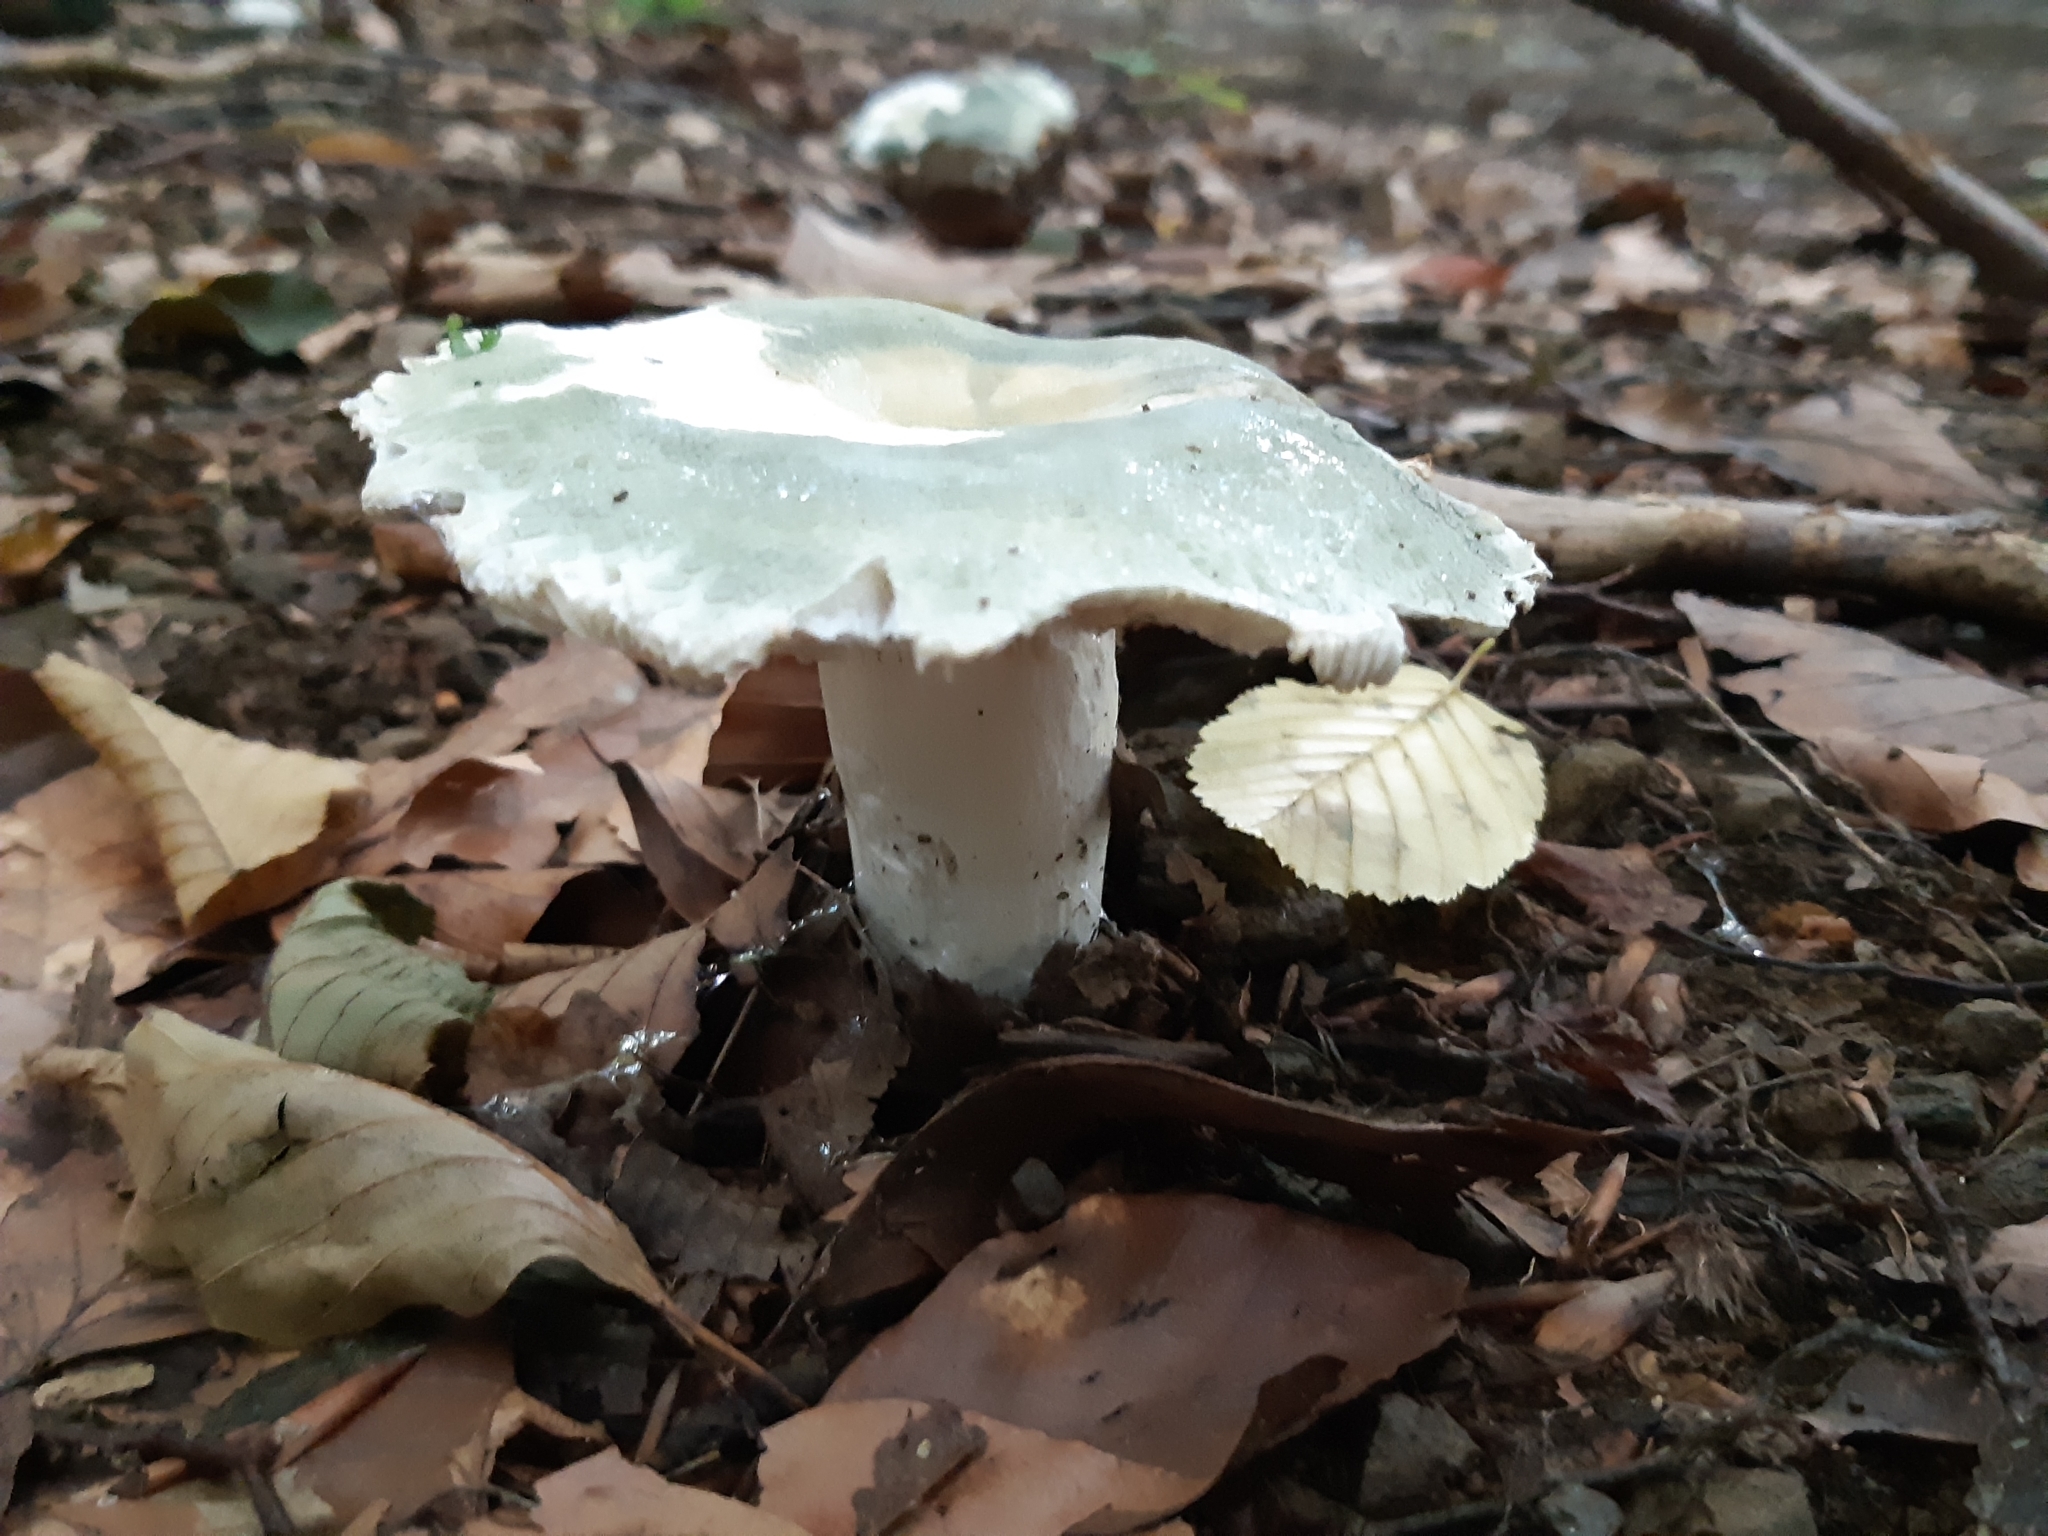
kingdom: Fungi
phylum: Basidiomycota
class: Agaricomycetes
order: Russulales
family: Russulaceae
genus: Russula
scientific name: Russula virescens
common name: Greencracked brittlegill
